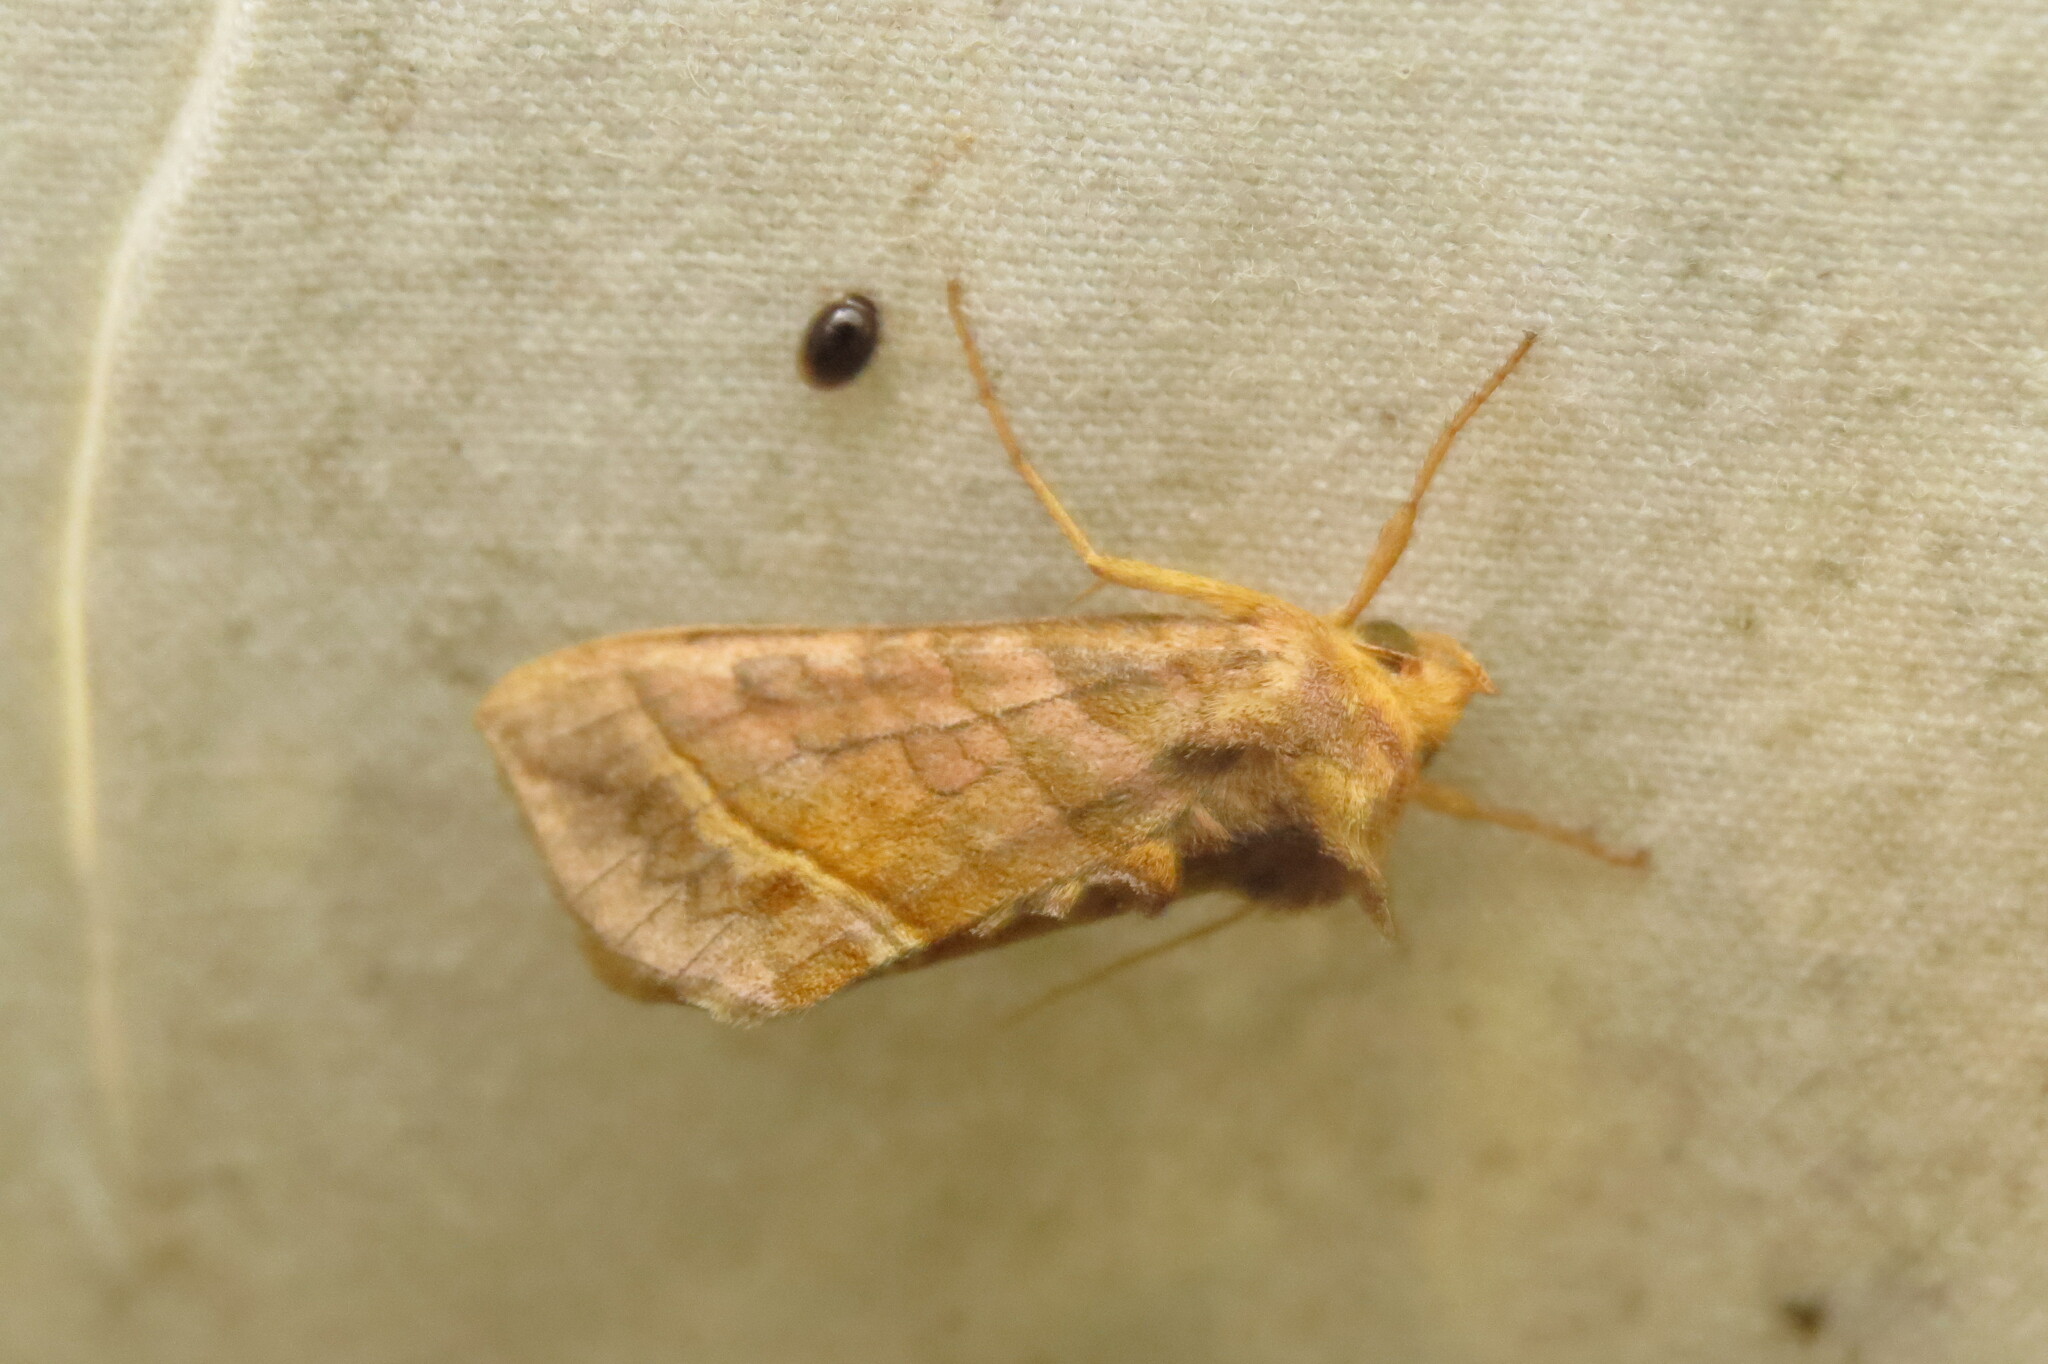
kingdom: Animalia
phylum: Arthropoda
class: Insecta
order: Lepidoptera
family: Noctuidae
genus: Diachrysia
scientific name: Diachrysia aereoides
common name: Dark-spotted looper moth
